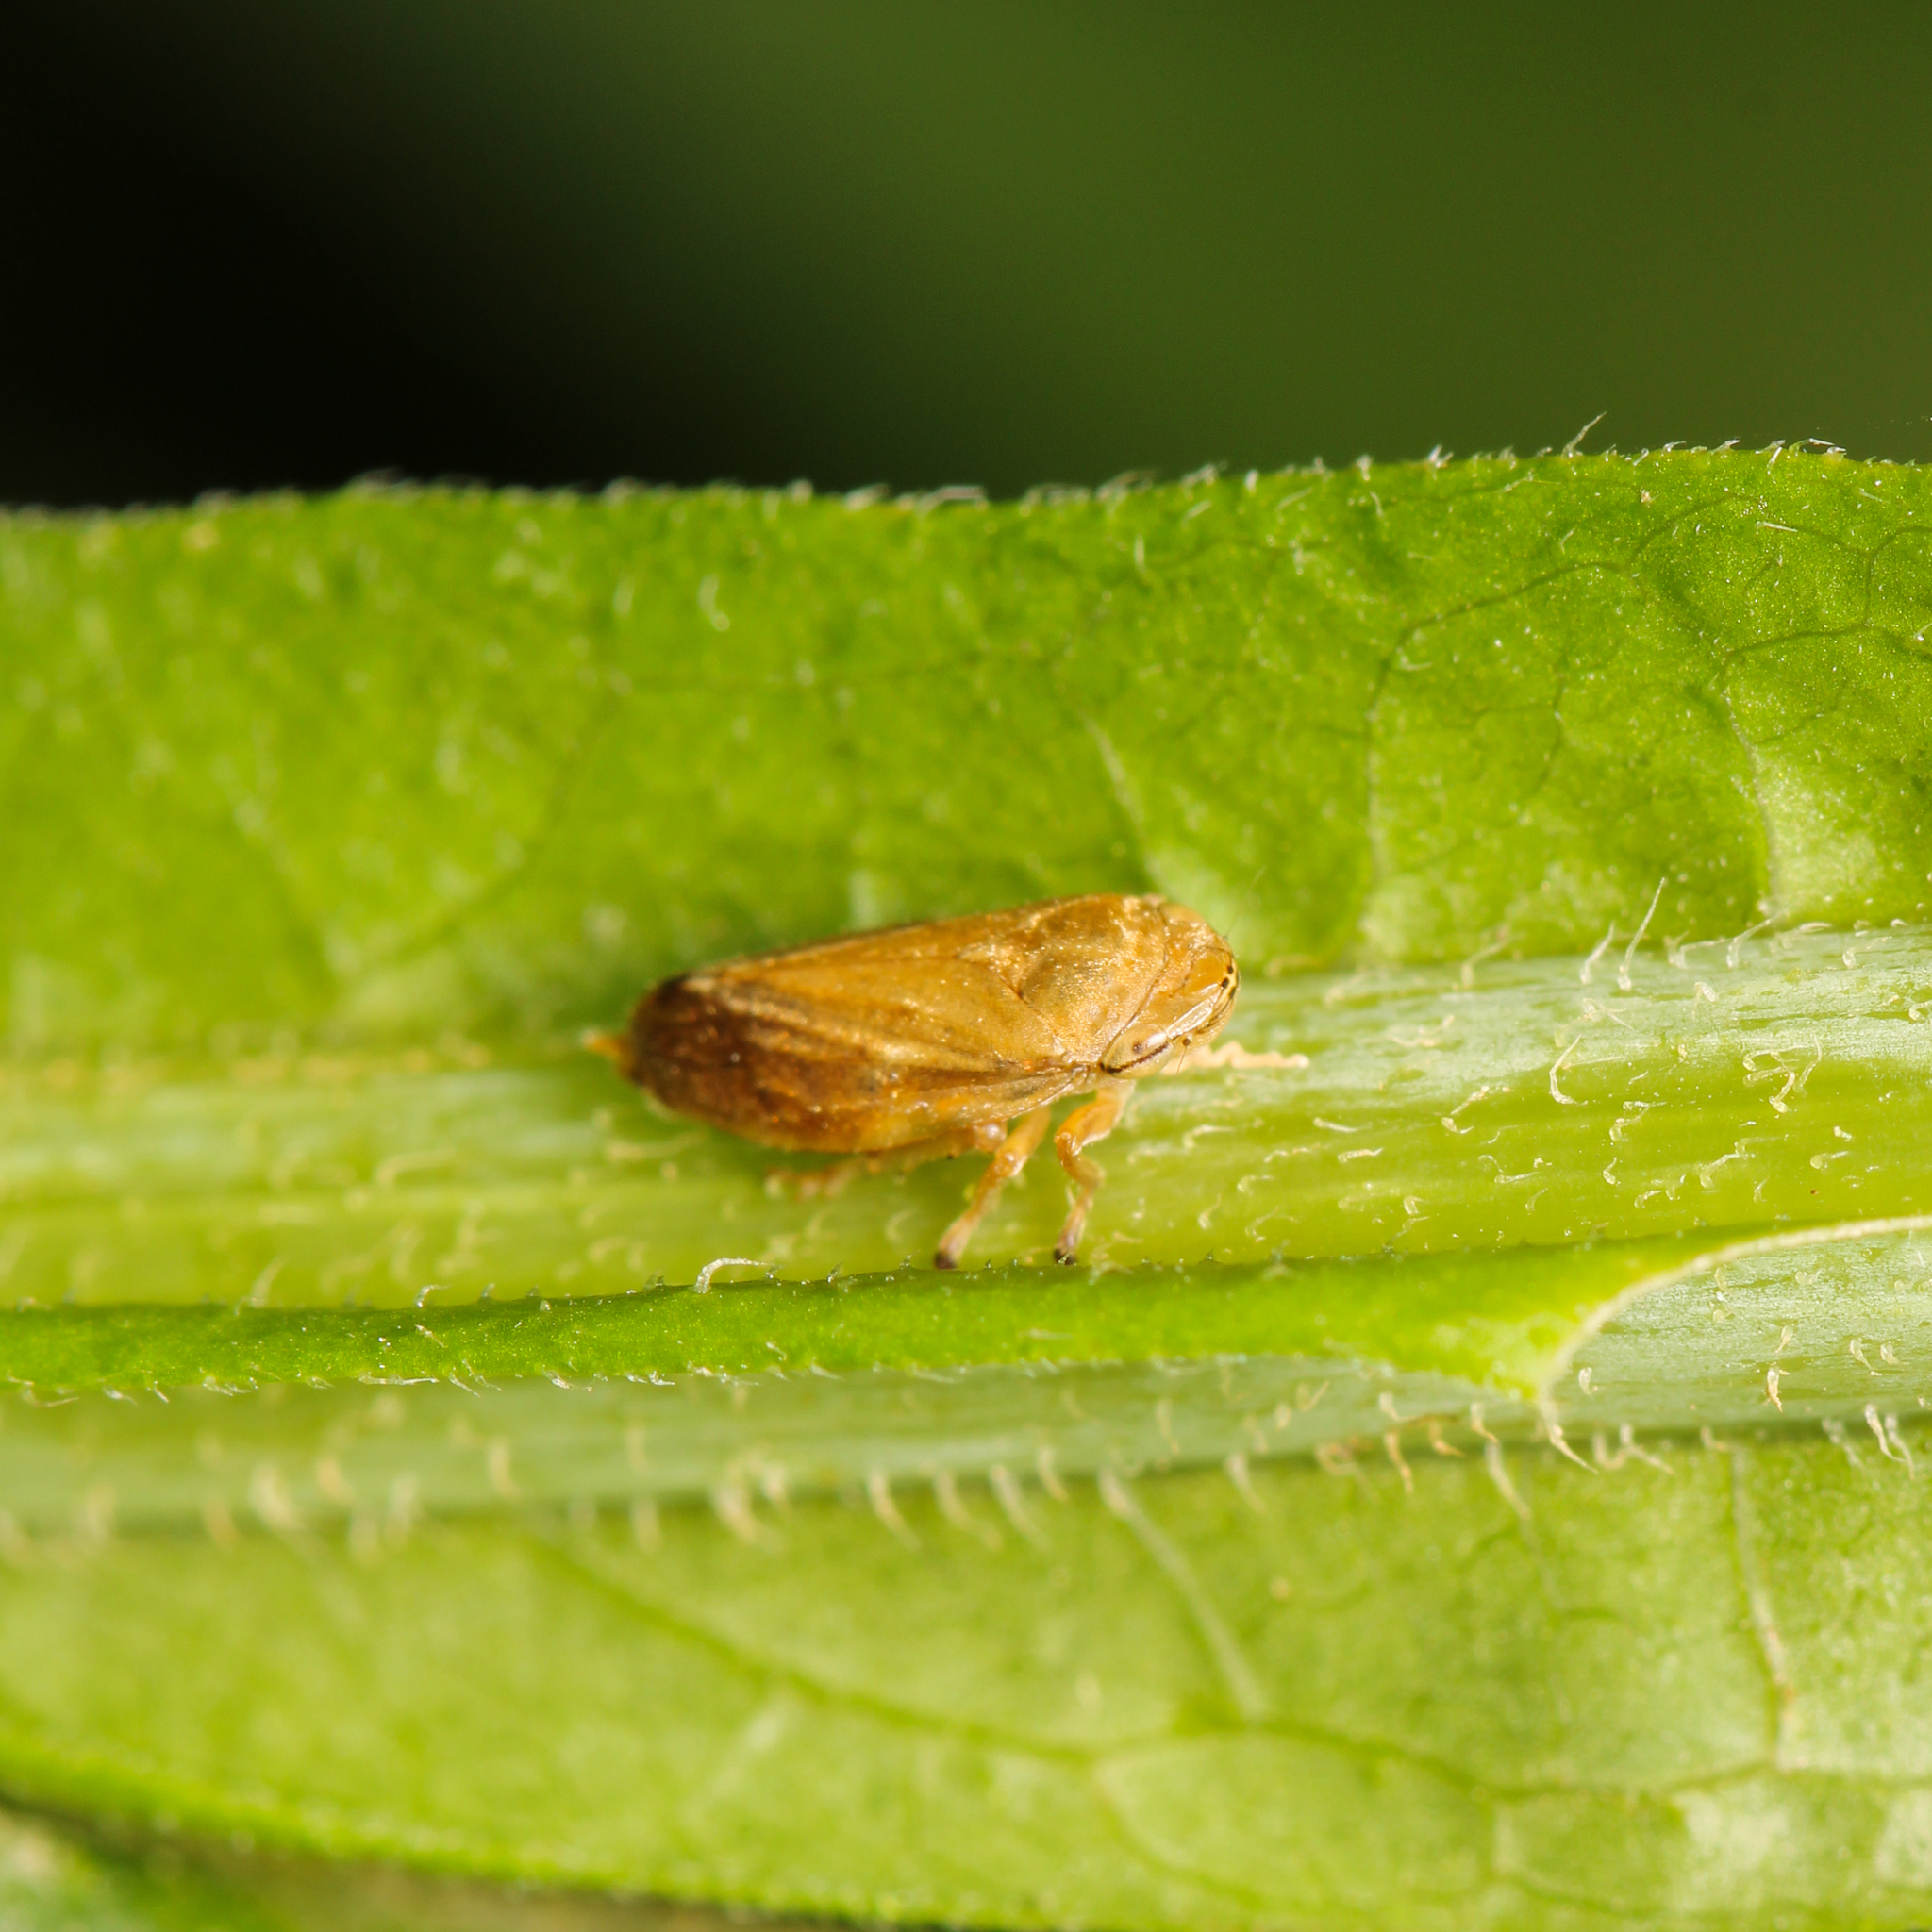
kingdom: Animalia
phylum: Arthropoda
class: Insecta
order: Hemiptera
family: Aphrophoridae
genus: Philaenus
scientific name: Philaenus spumarius
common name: Meadow spittlebug
